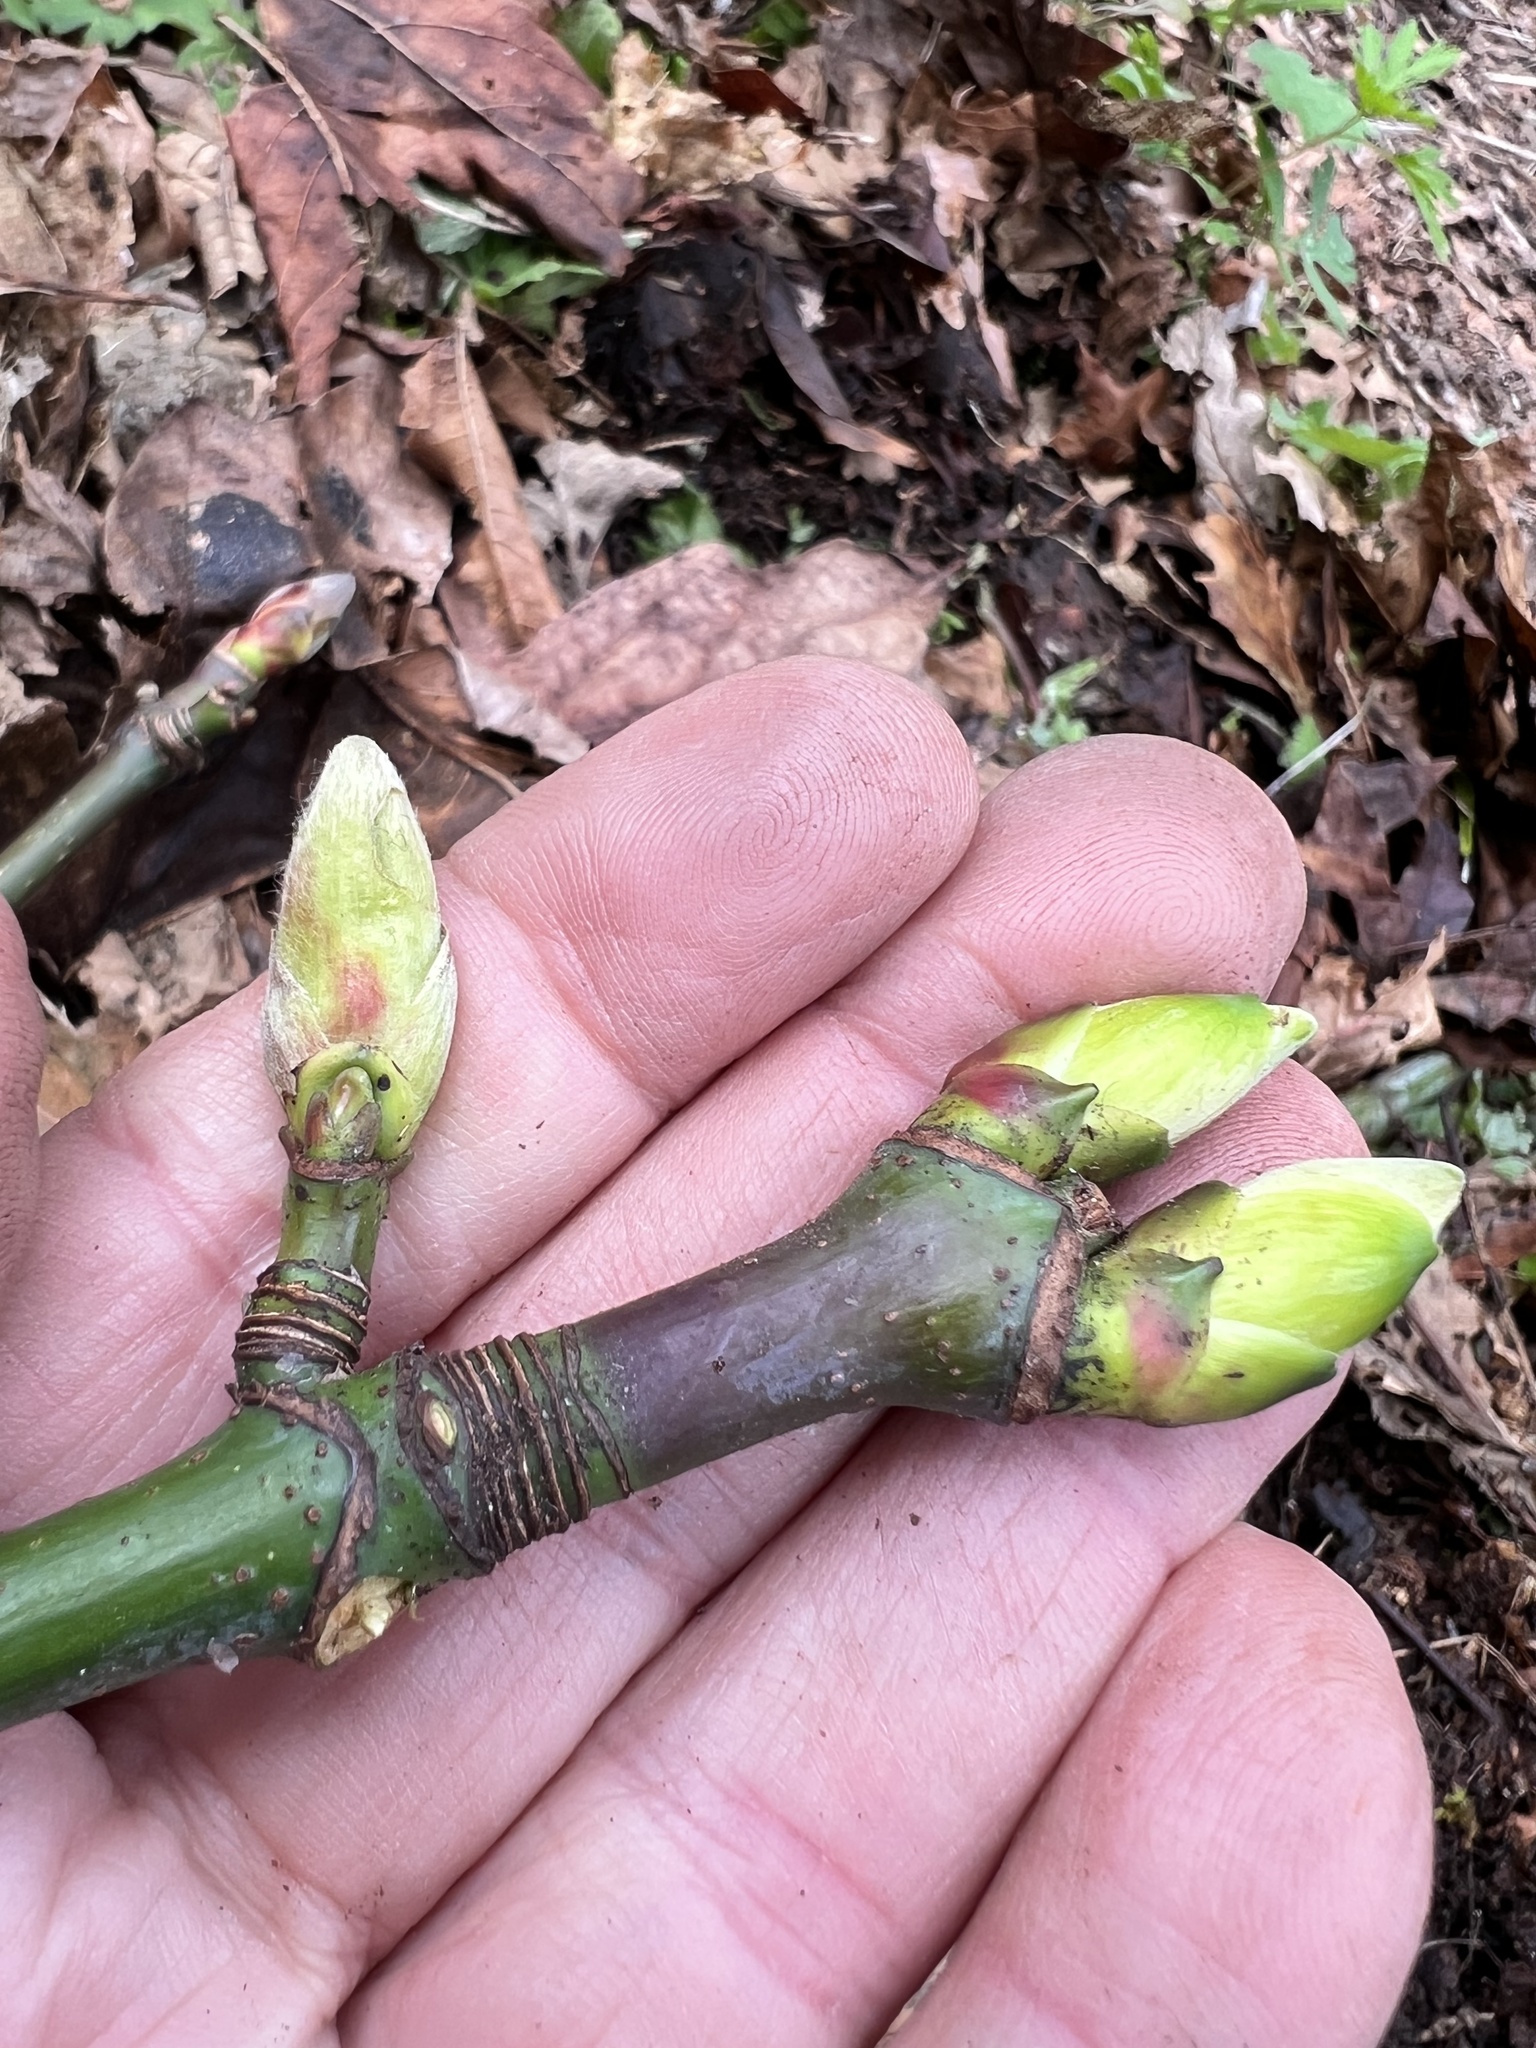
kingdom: Plantae
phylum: Tracheophyta
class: Magnoliopsida
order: Sapindales
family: Sapindaceae
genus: Acer
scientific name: Acer macrophyllum
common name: Oregon maple
